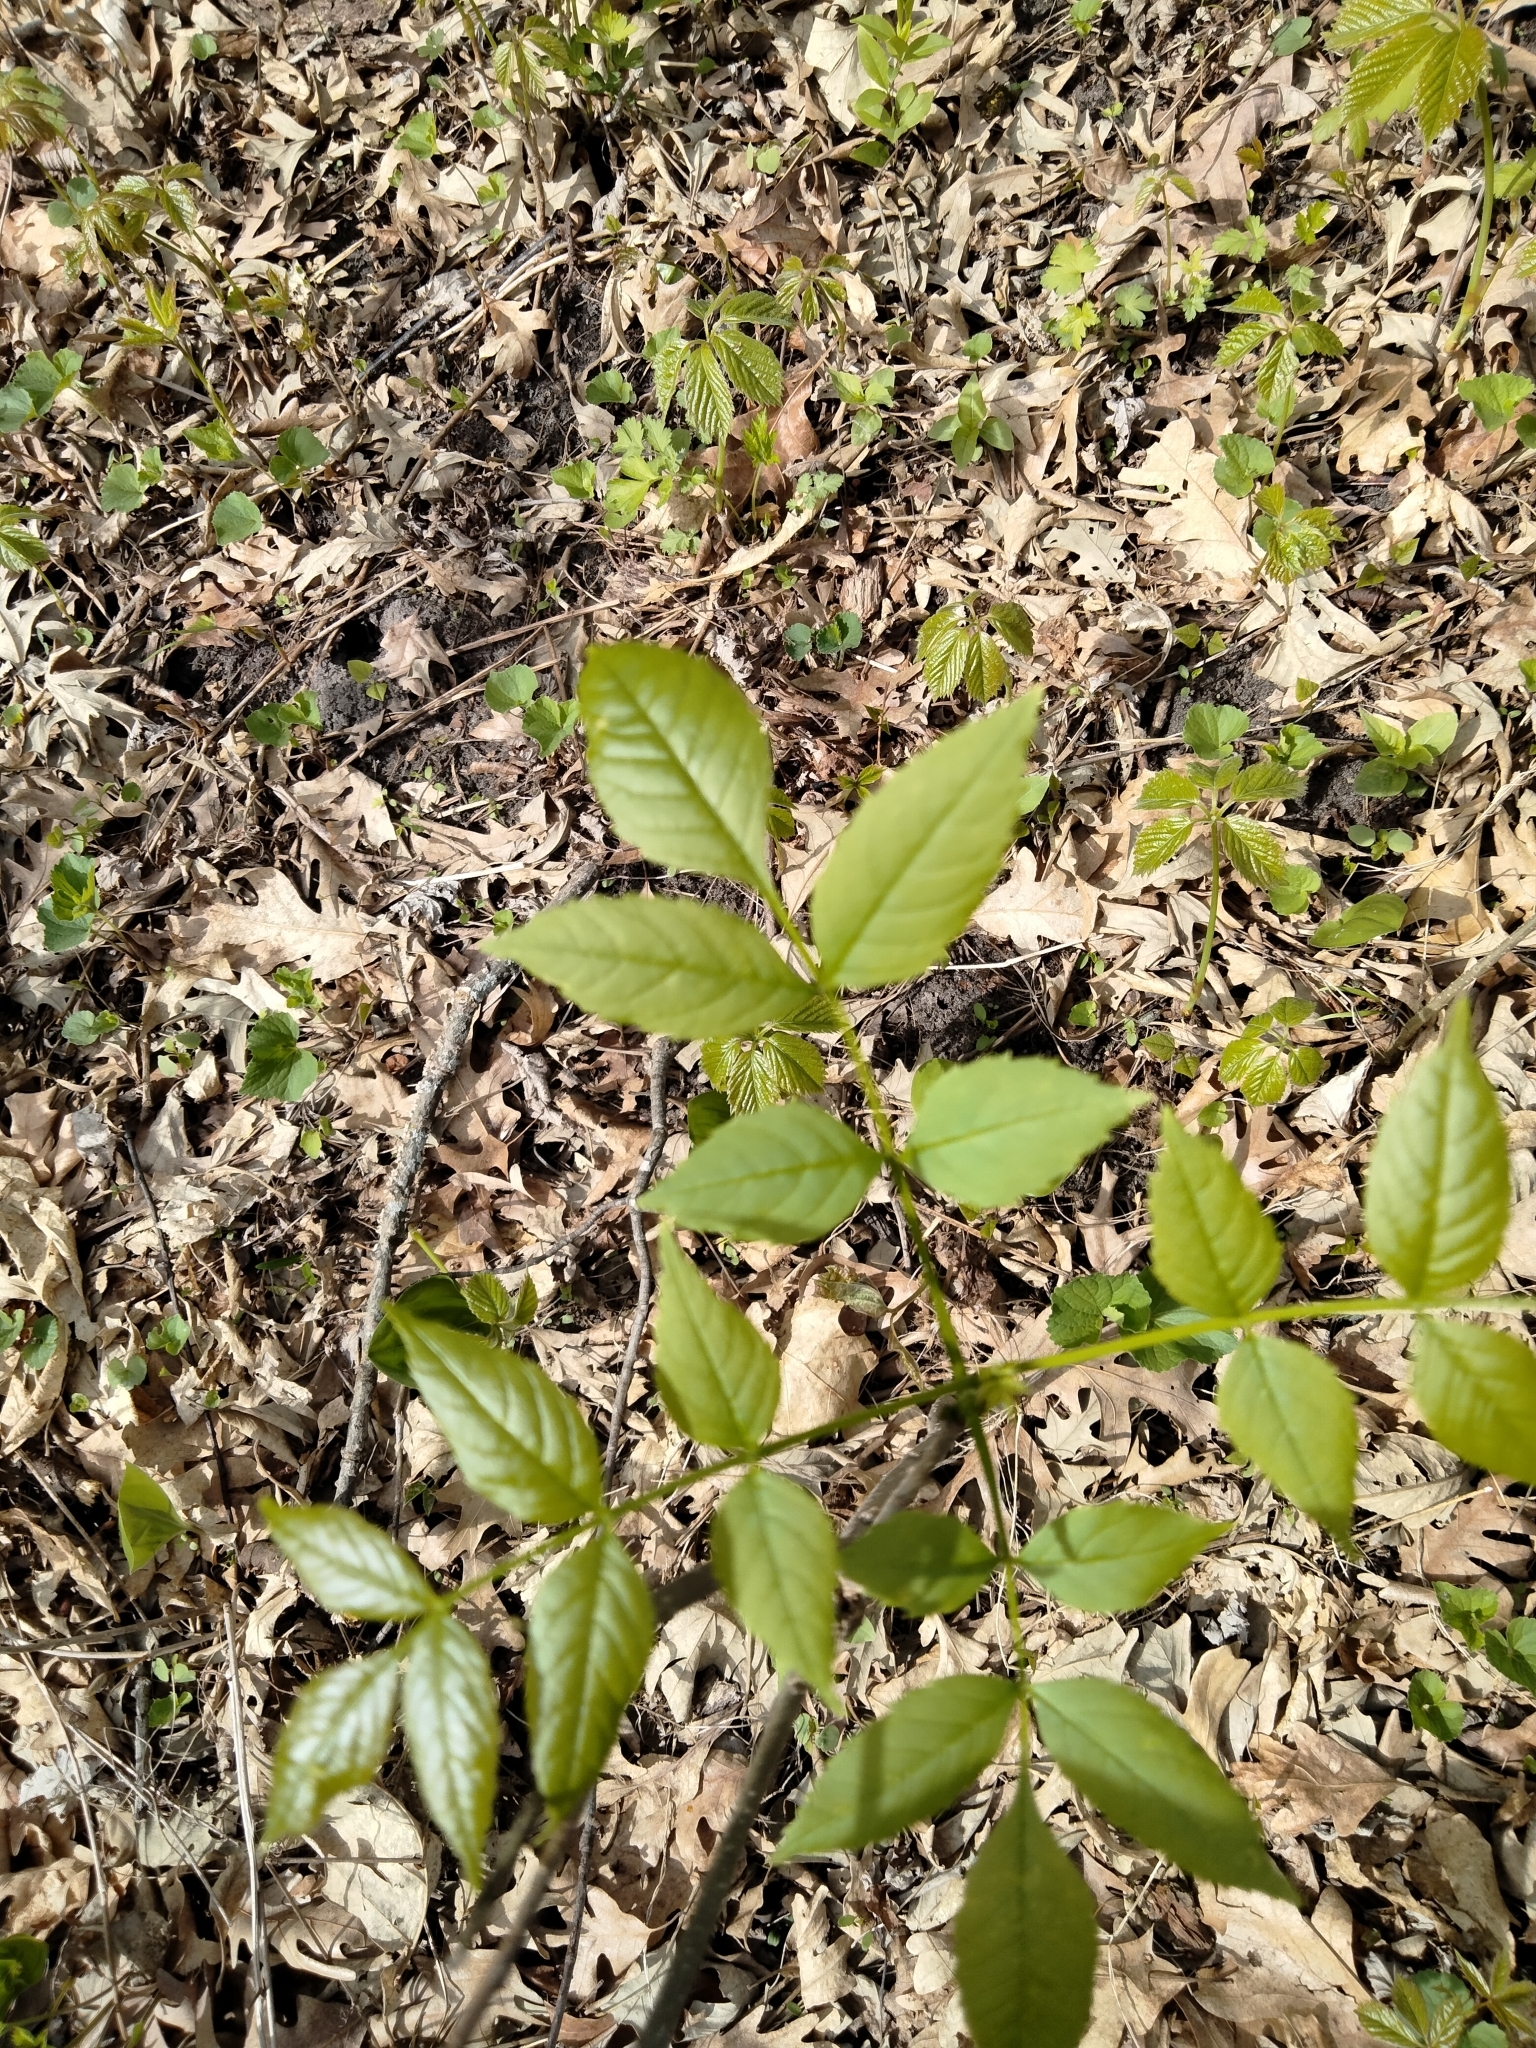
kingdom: Plantae
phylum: Tracheophyta
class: Magnoliopsida
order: Lamiales
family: Oleaceae
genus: Fraxinus
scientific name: Fraxinus pennsylvanica
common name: Green ash
